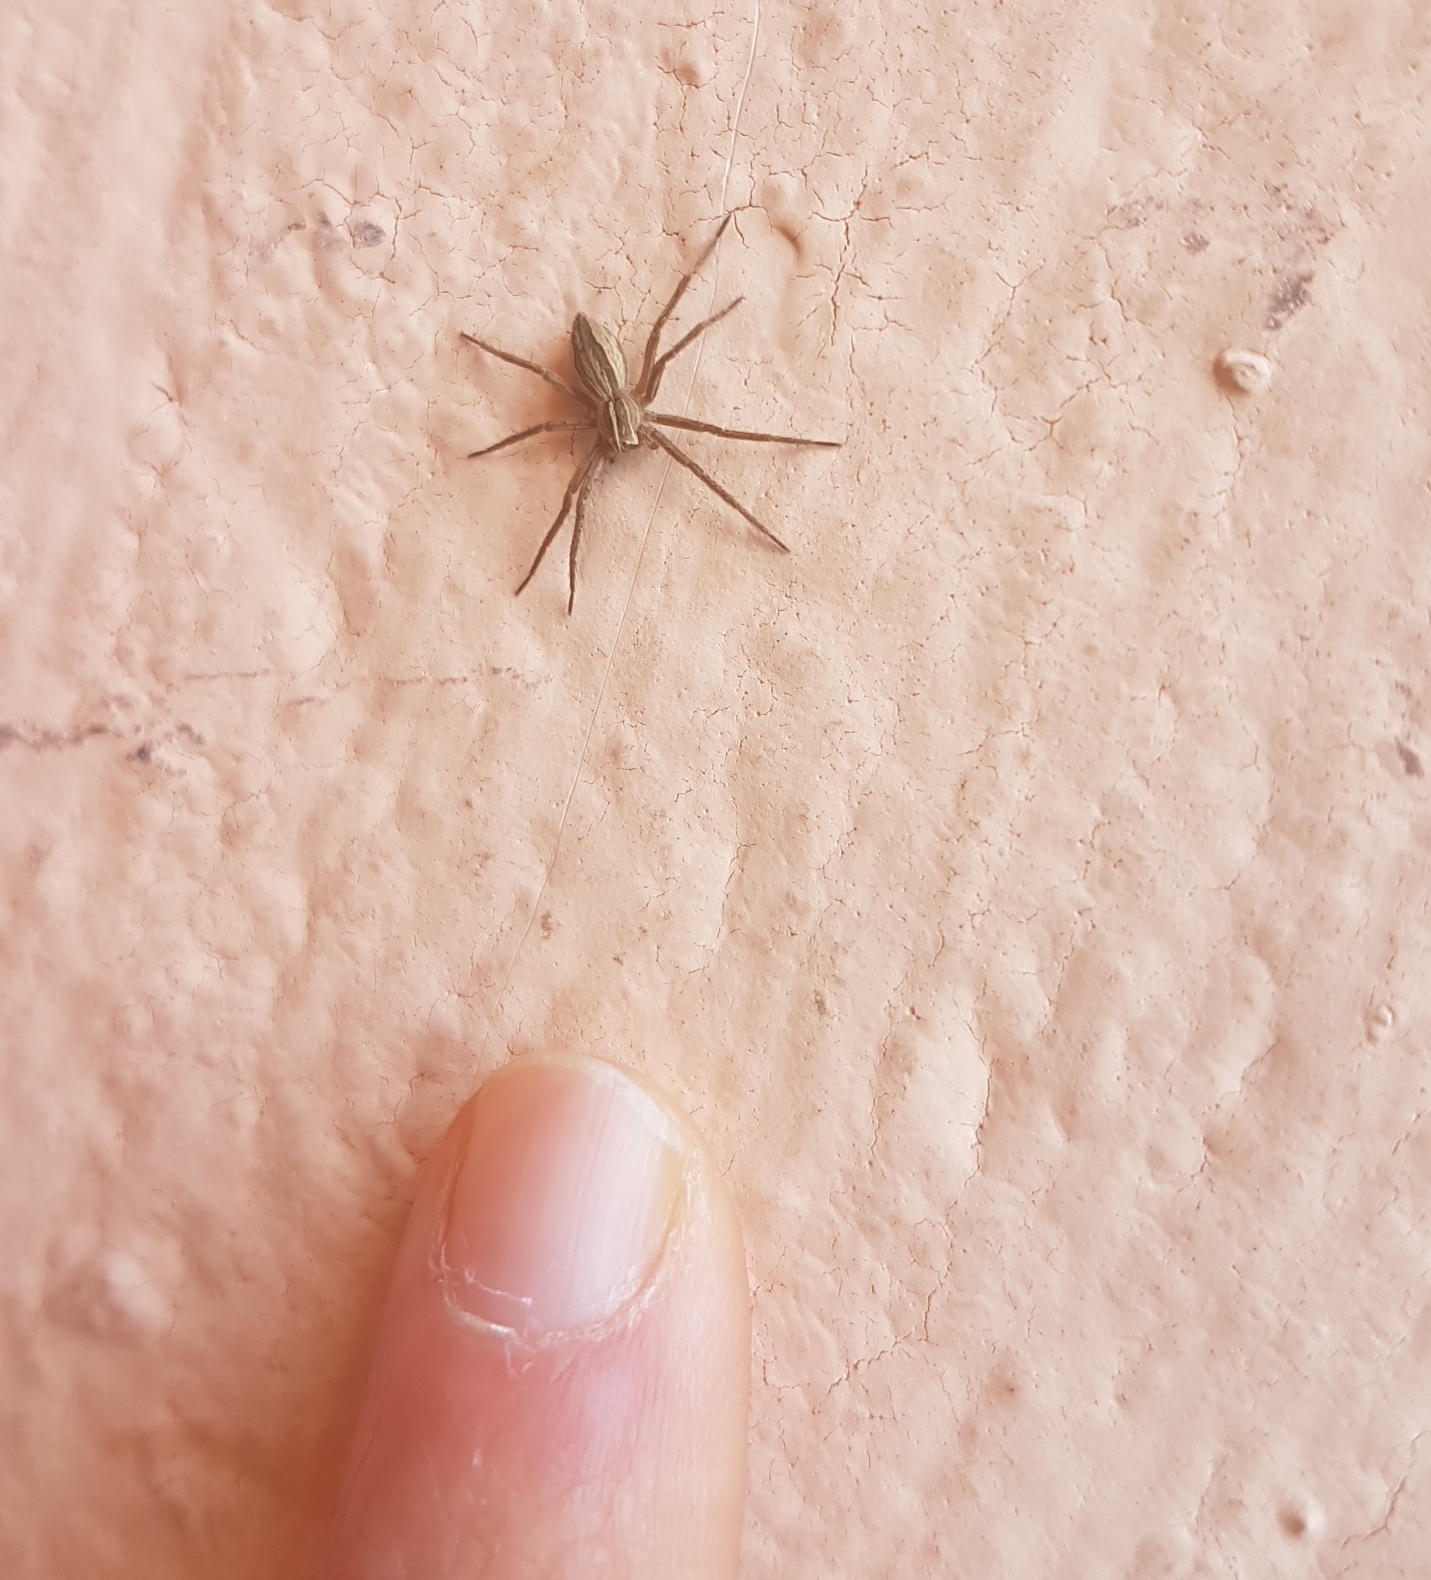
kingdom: Animalia
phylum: Arthropoda
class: Arachnida
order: Araneae
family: Pisauridae
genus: Pisaura
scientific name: Pisaura
